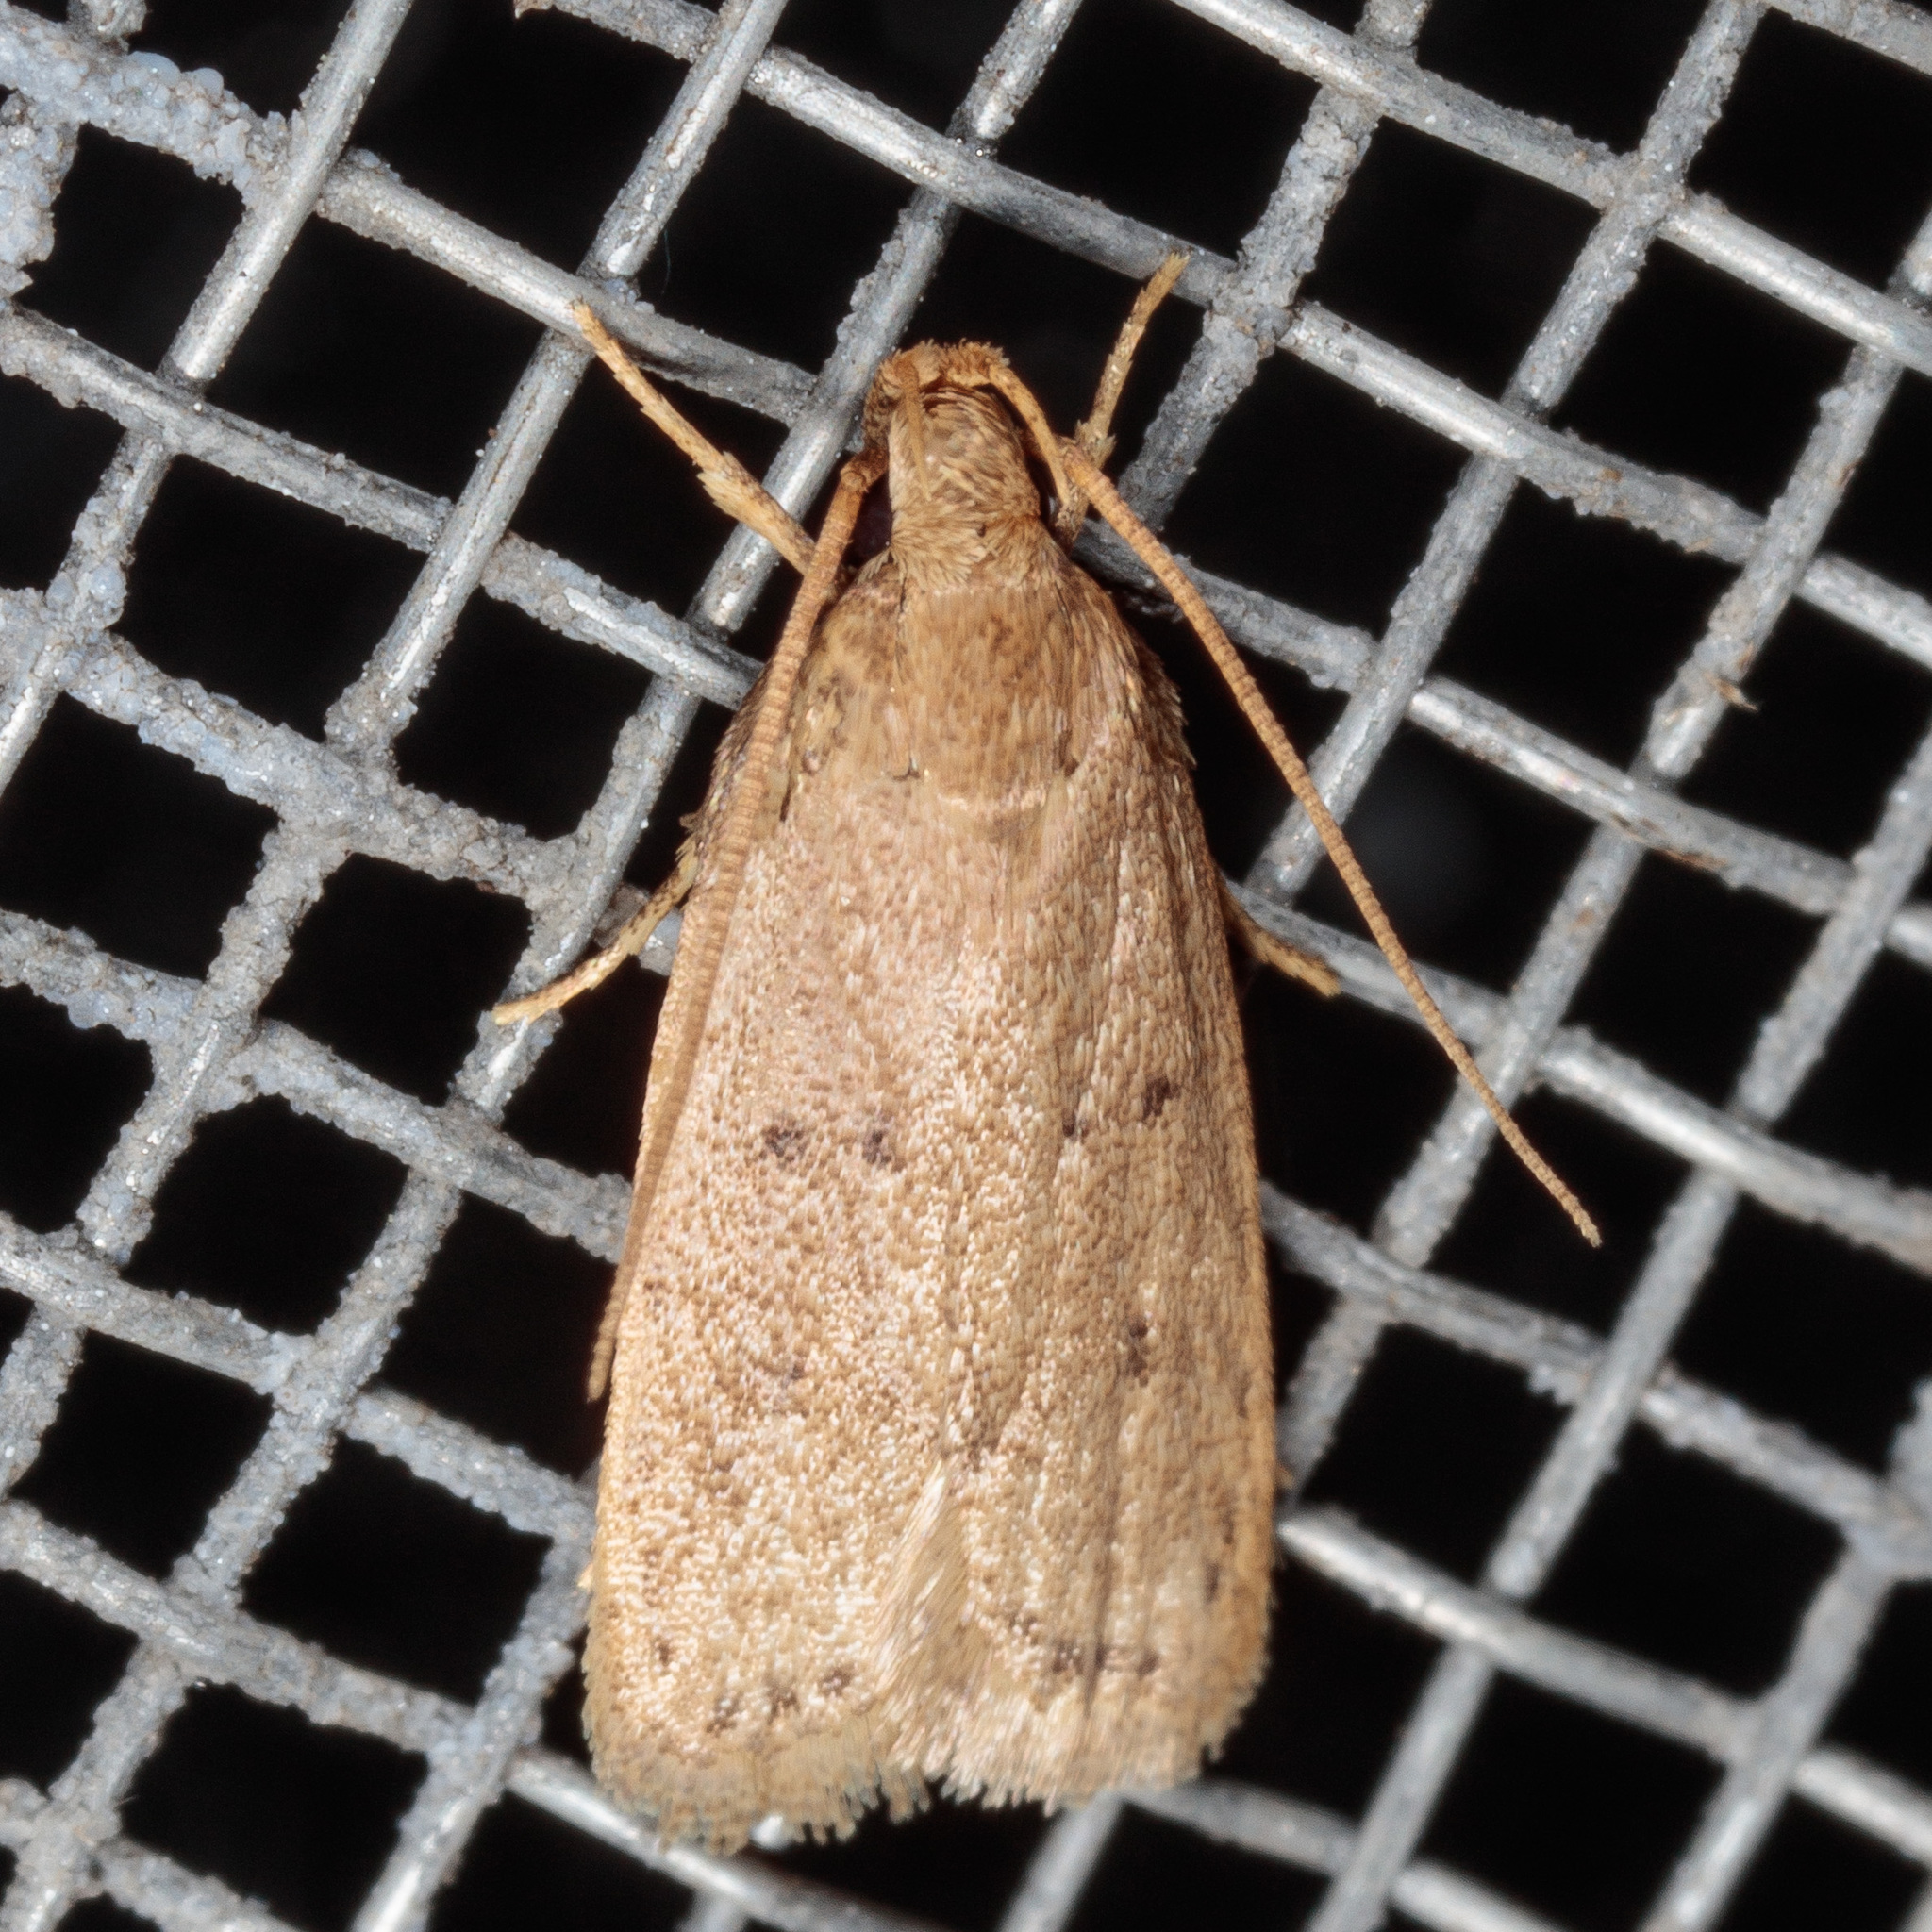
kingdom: Animalia
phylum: Arthropoda
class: Insecta
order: Lepidoptera
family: Autostichidae
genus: Autosticha
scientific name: Autosticha kyotensis
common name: Kyoto moth
